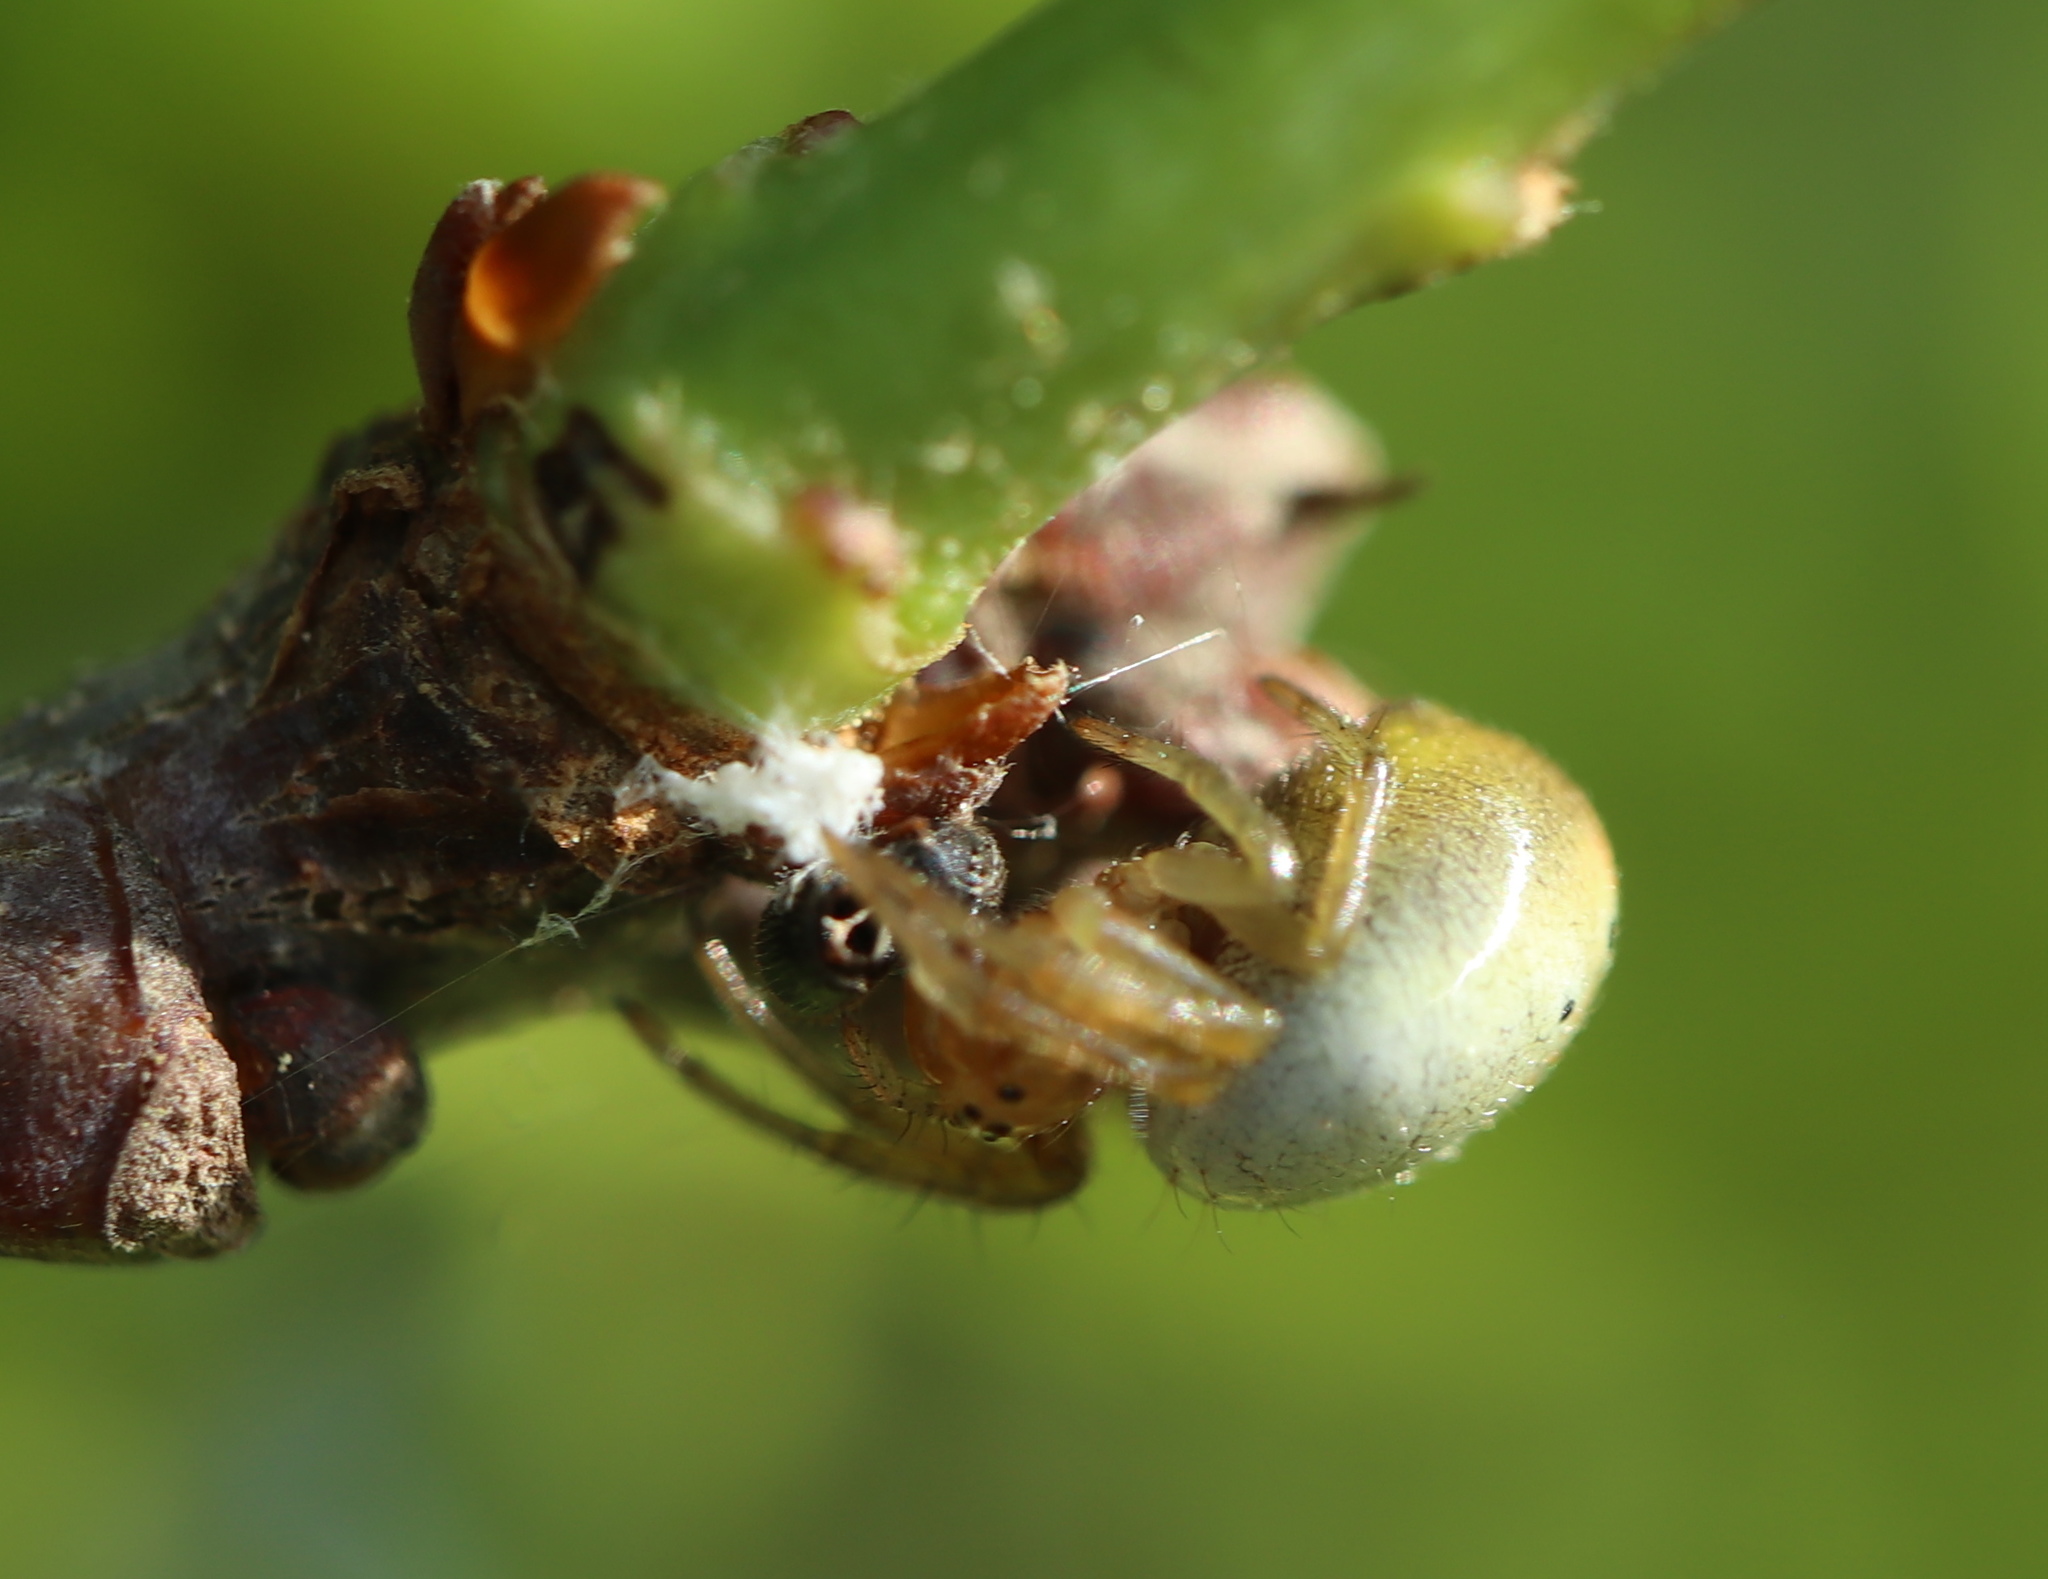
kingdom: Animalia
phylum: Arthropoda
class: Arachnida
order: Araneae
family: Araneidae
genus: Araniella
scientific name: Araniella displicata
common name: Sixspotted orb weaver
